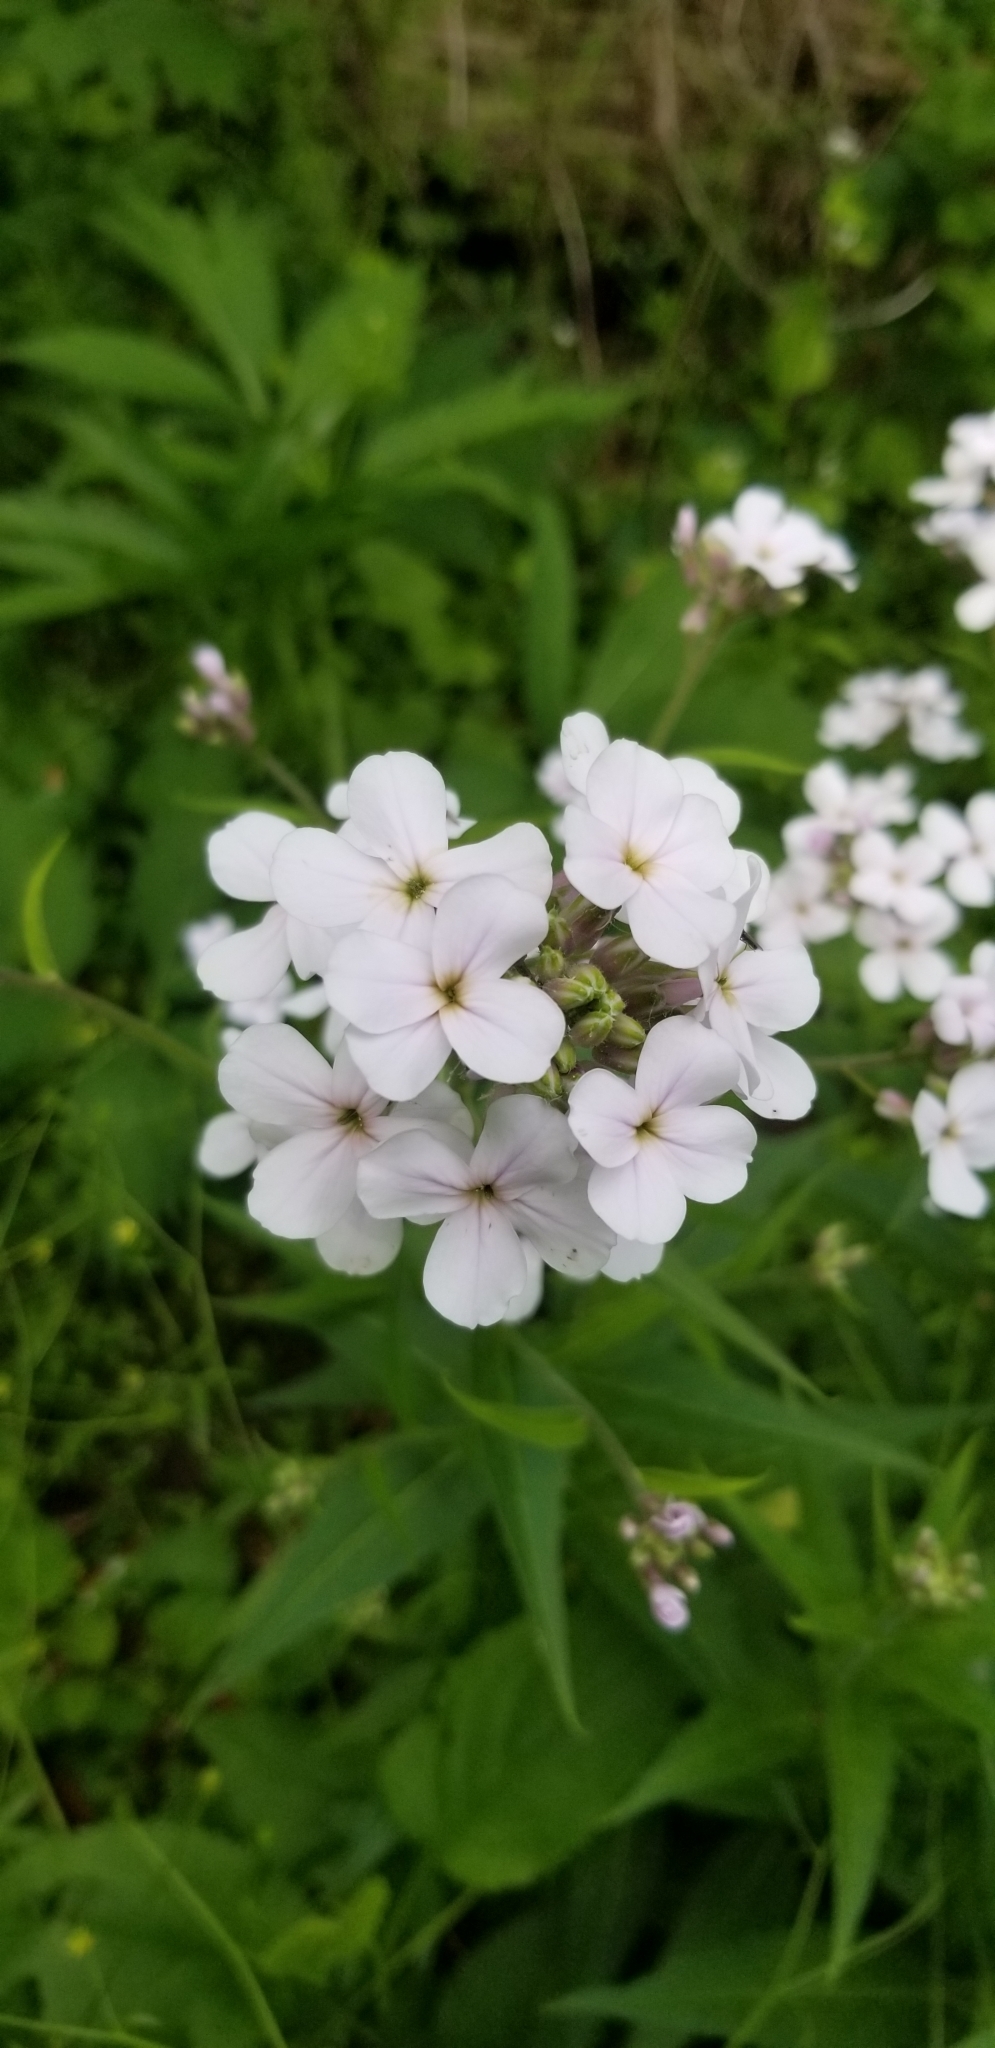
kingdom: Plantae
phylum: Tracheophyta
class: Magnoliopsida
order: Brassicales
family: Brassicaceae
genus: Hesperis
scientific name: Hesperis matronalis
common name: Dame's-violet
